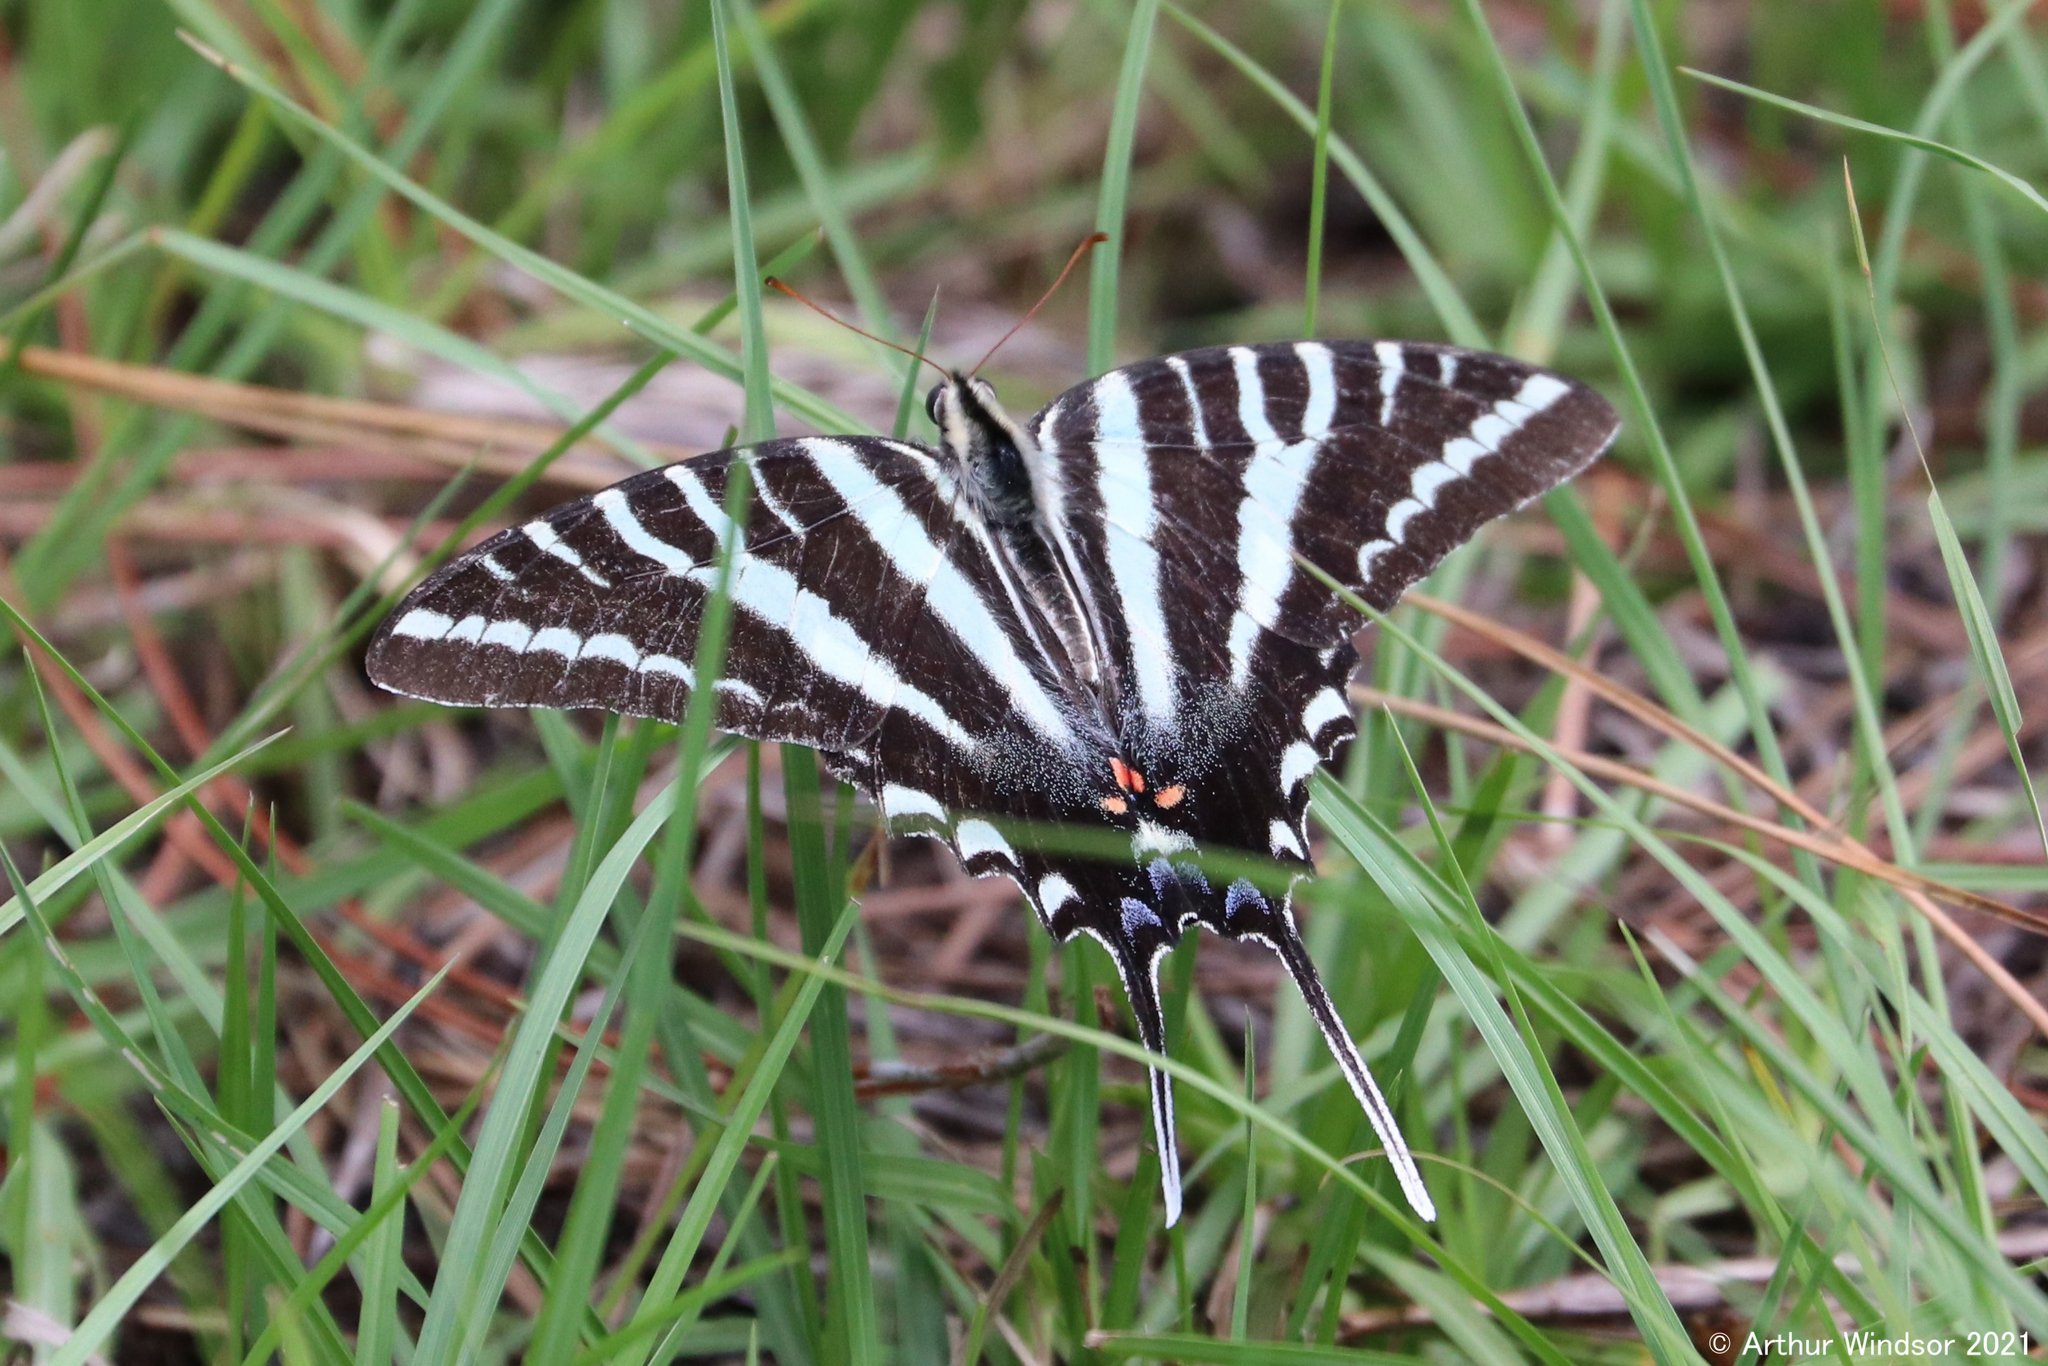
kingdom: Animalia
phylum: Arthropoda
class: Insecta
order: Lepidoptera
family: Papilionidae
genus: Protographium
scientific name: Protographium marcellus
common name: Zebra swallowtail
